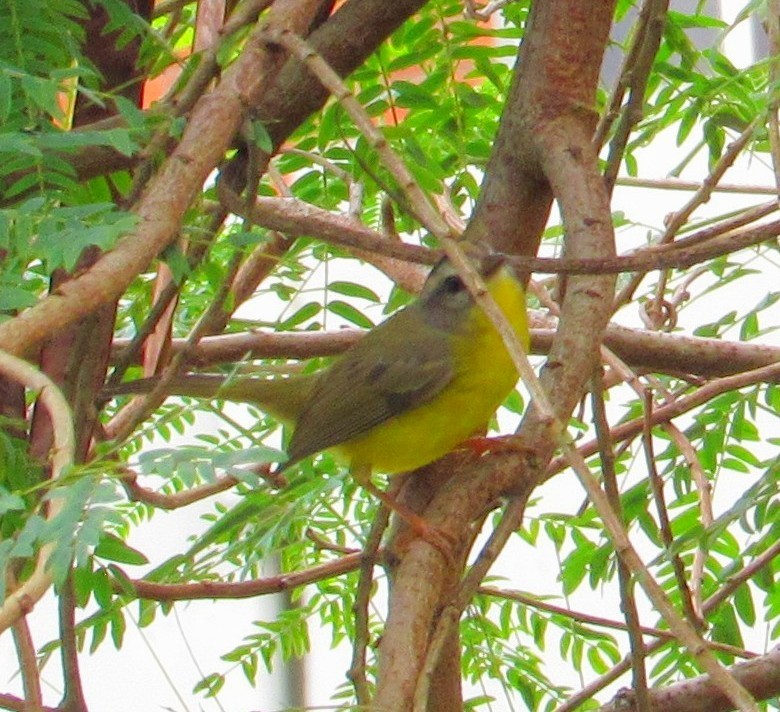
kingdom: Animalia
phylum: Chordata
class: Aves
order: Passeriformes
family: Parulidae
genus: Basileuterus
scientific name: Basileuterus culicivorus
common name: Golden-crowned warbler
